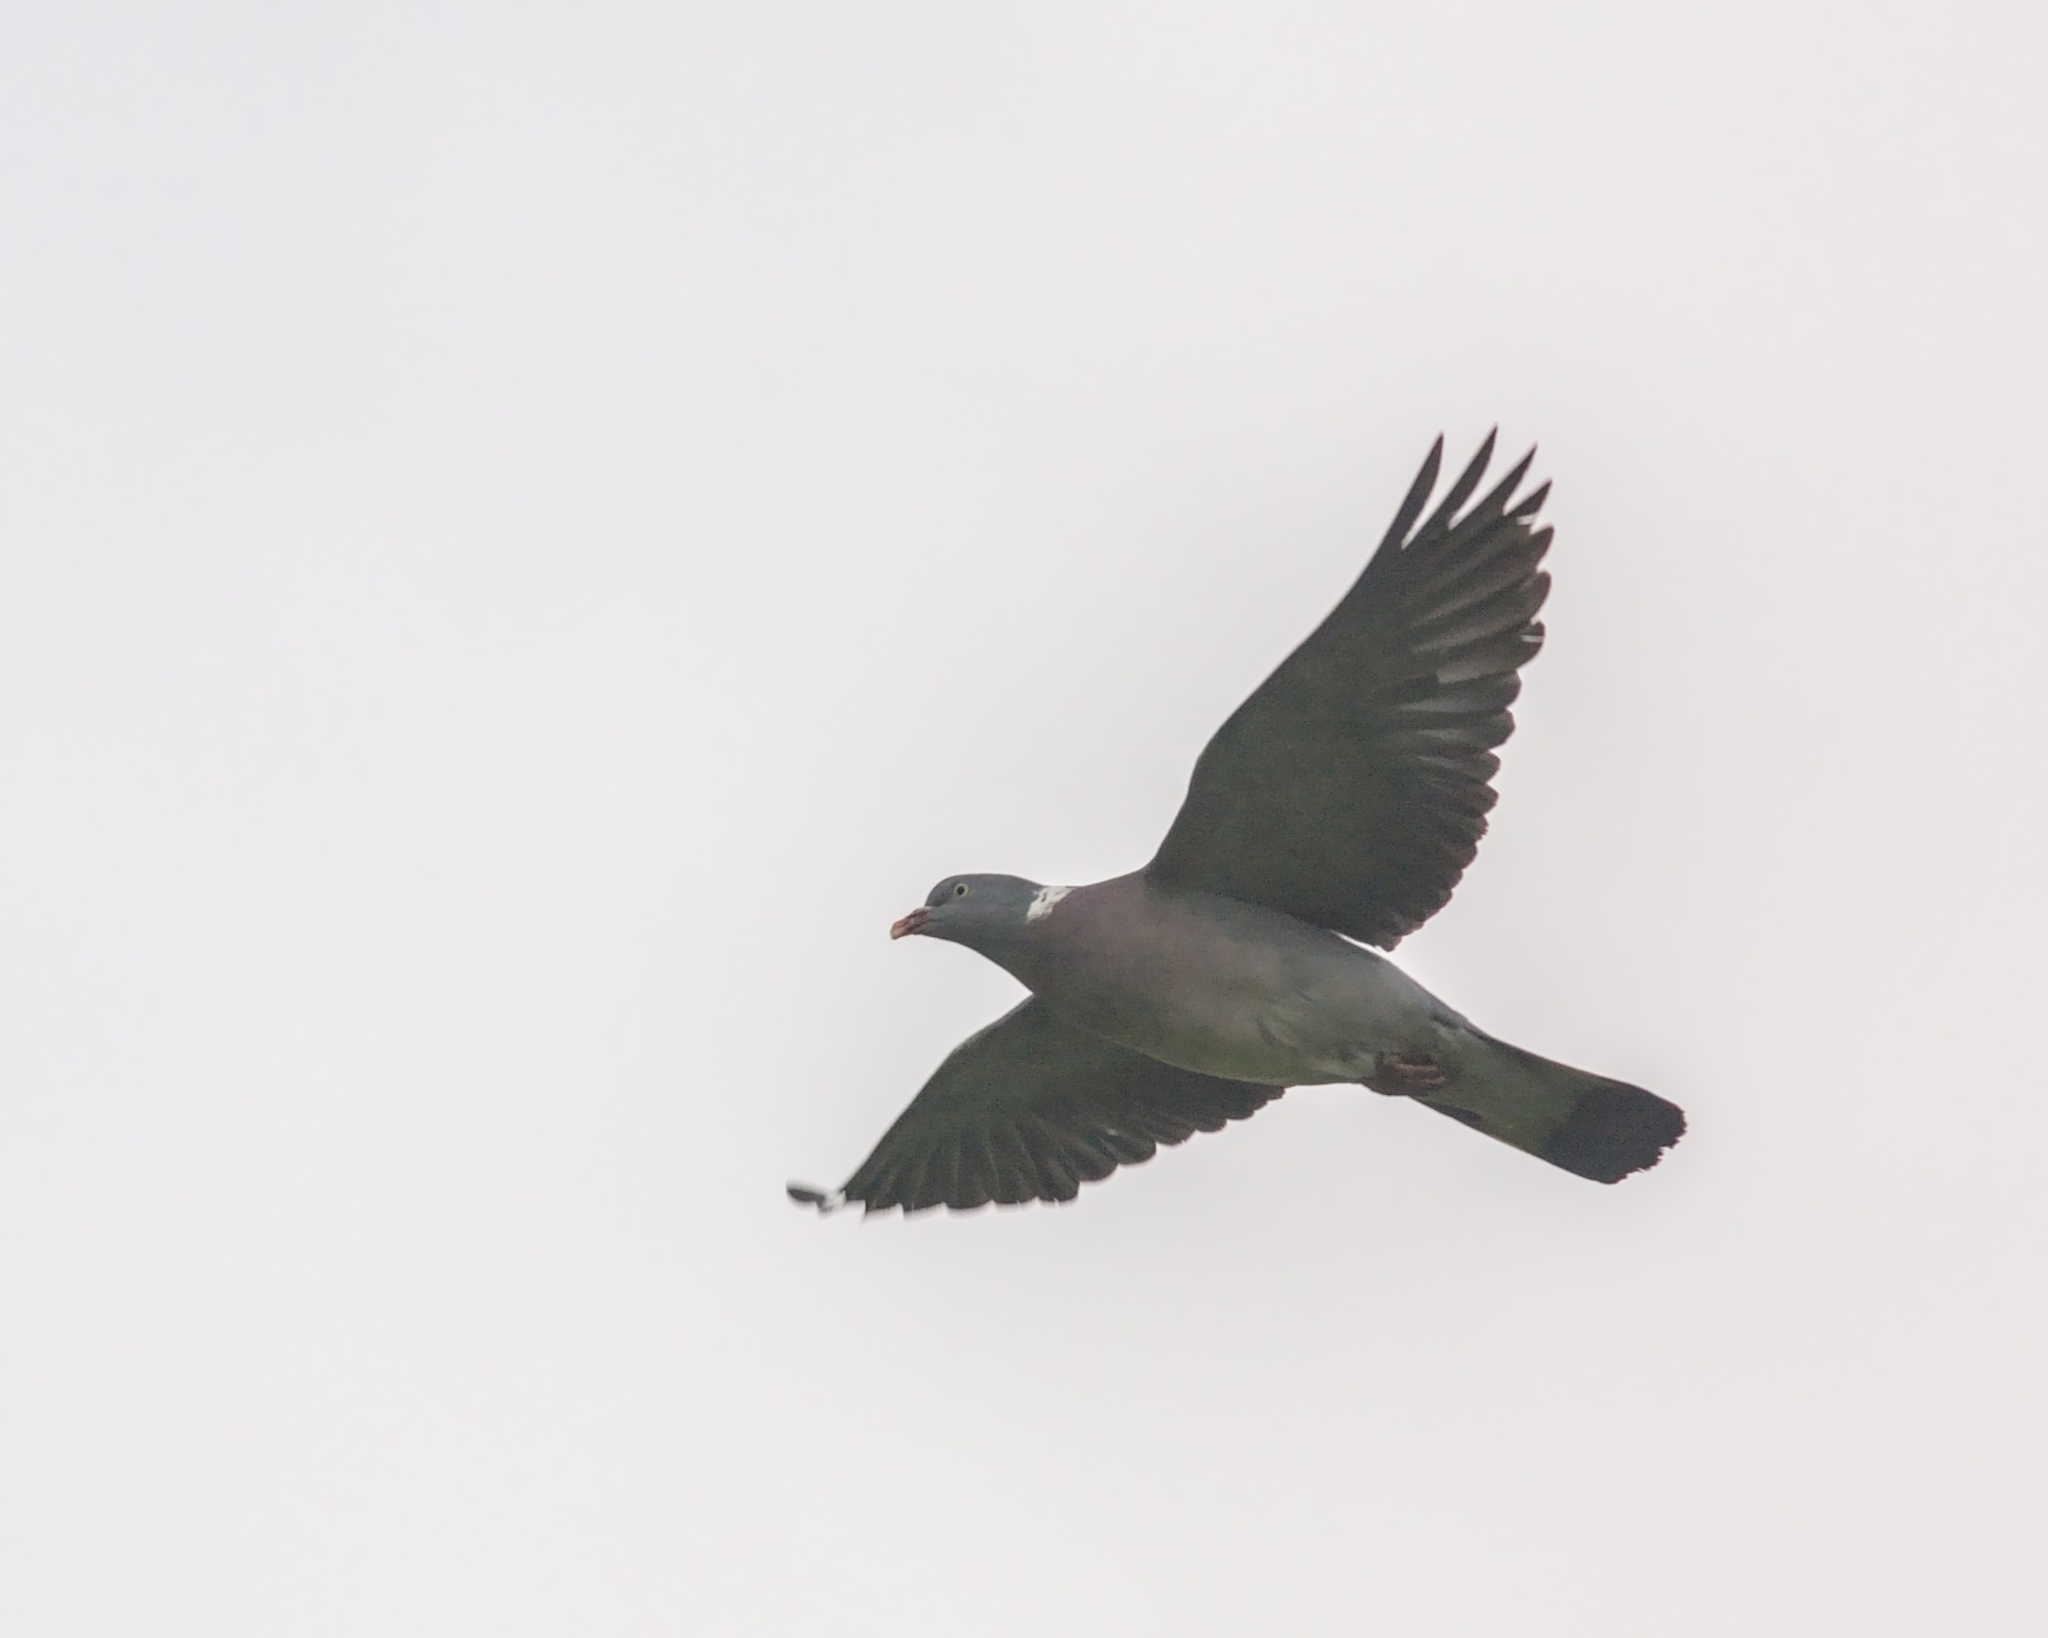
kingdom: Animalia
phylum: Chordata
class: Aves
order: Columbiformes
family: Columbidae
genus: Columba
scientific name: Columba palumbus
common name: Common wood pigeon
